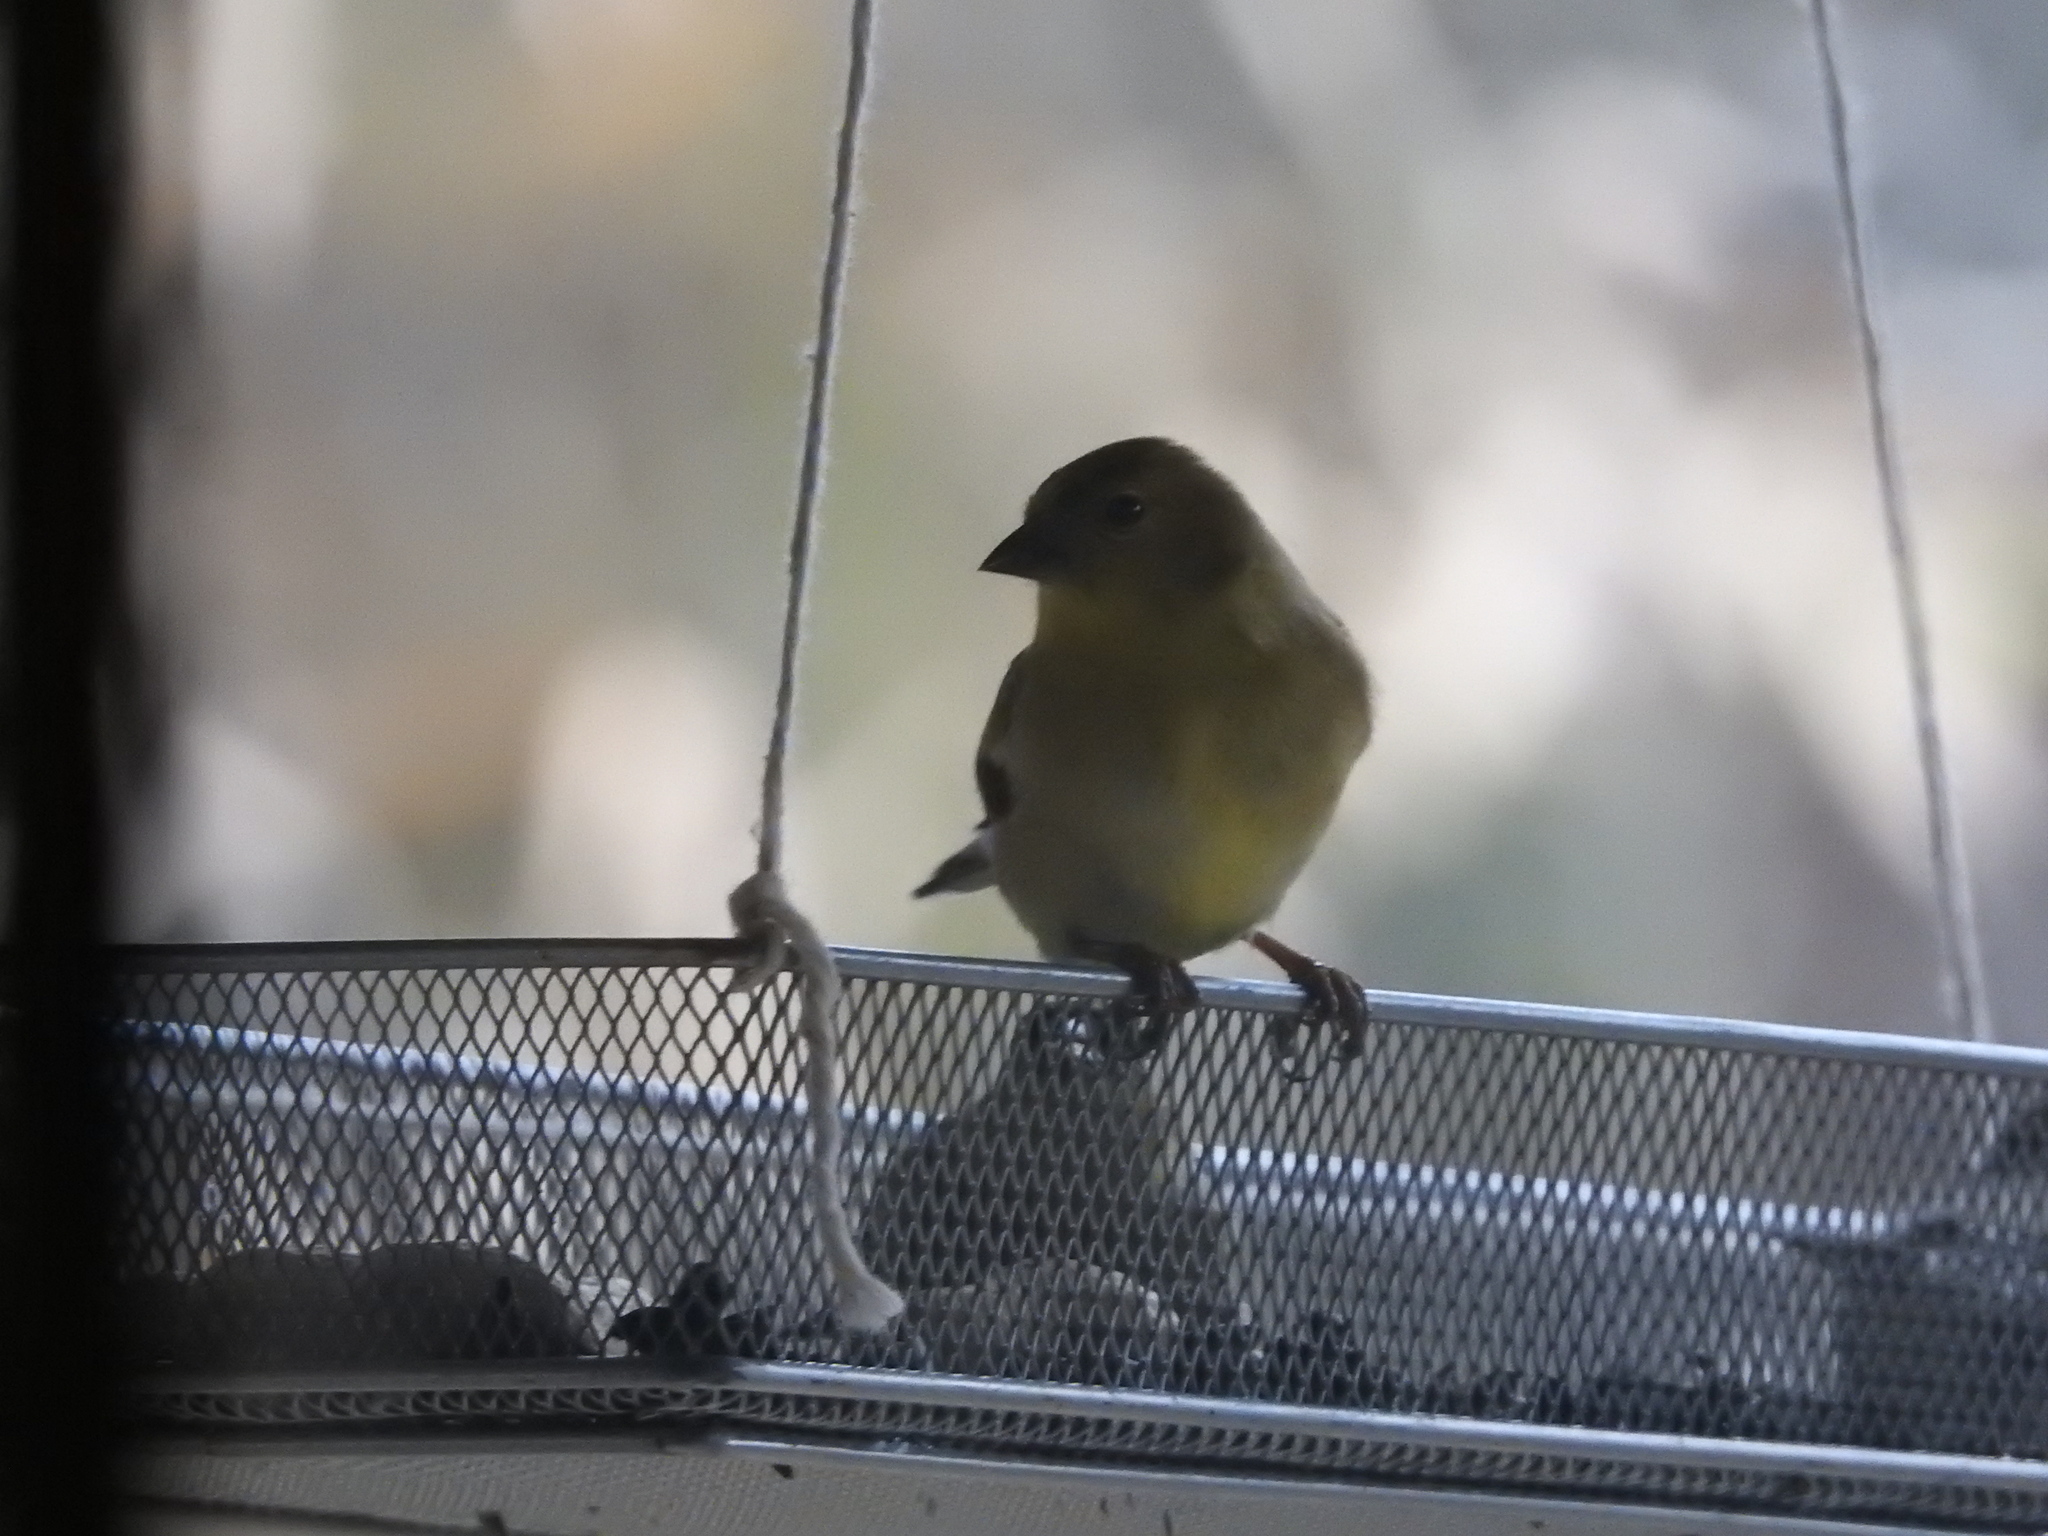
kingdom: Animalia
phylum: Chordata
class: Aves
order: Passeriformes
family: Fringillidae
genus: Spinus
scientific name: Spinus tristis
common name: American goldfinch
